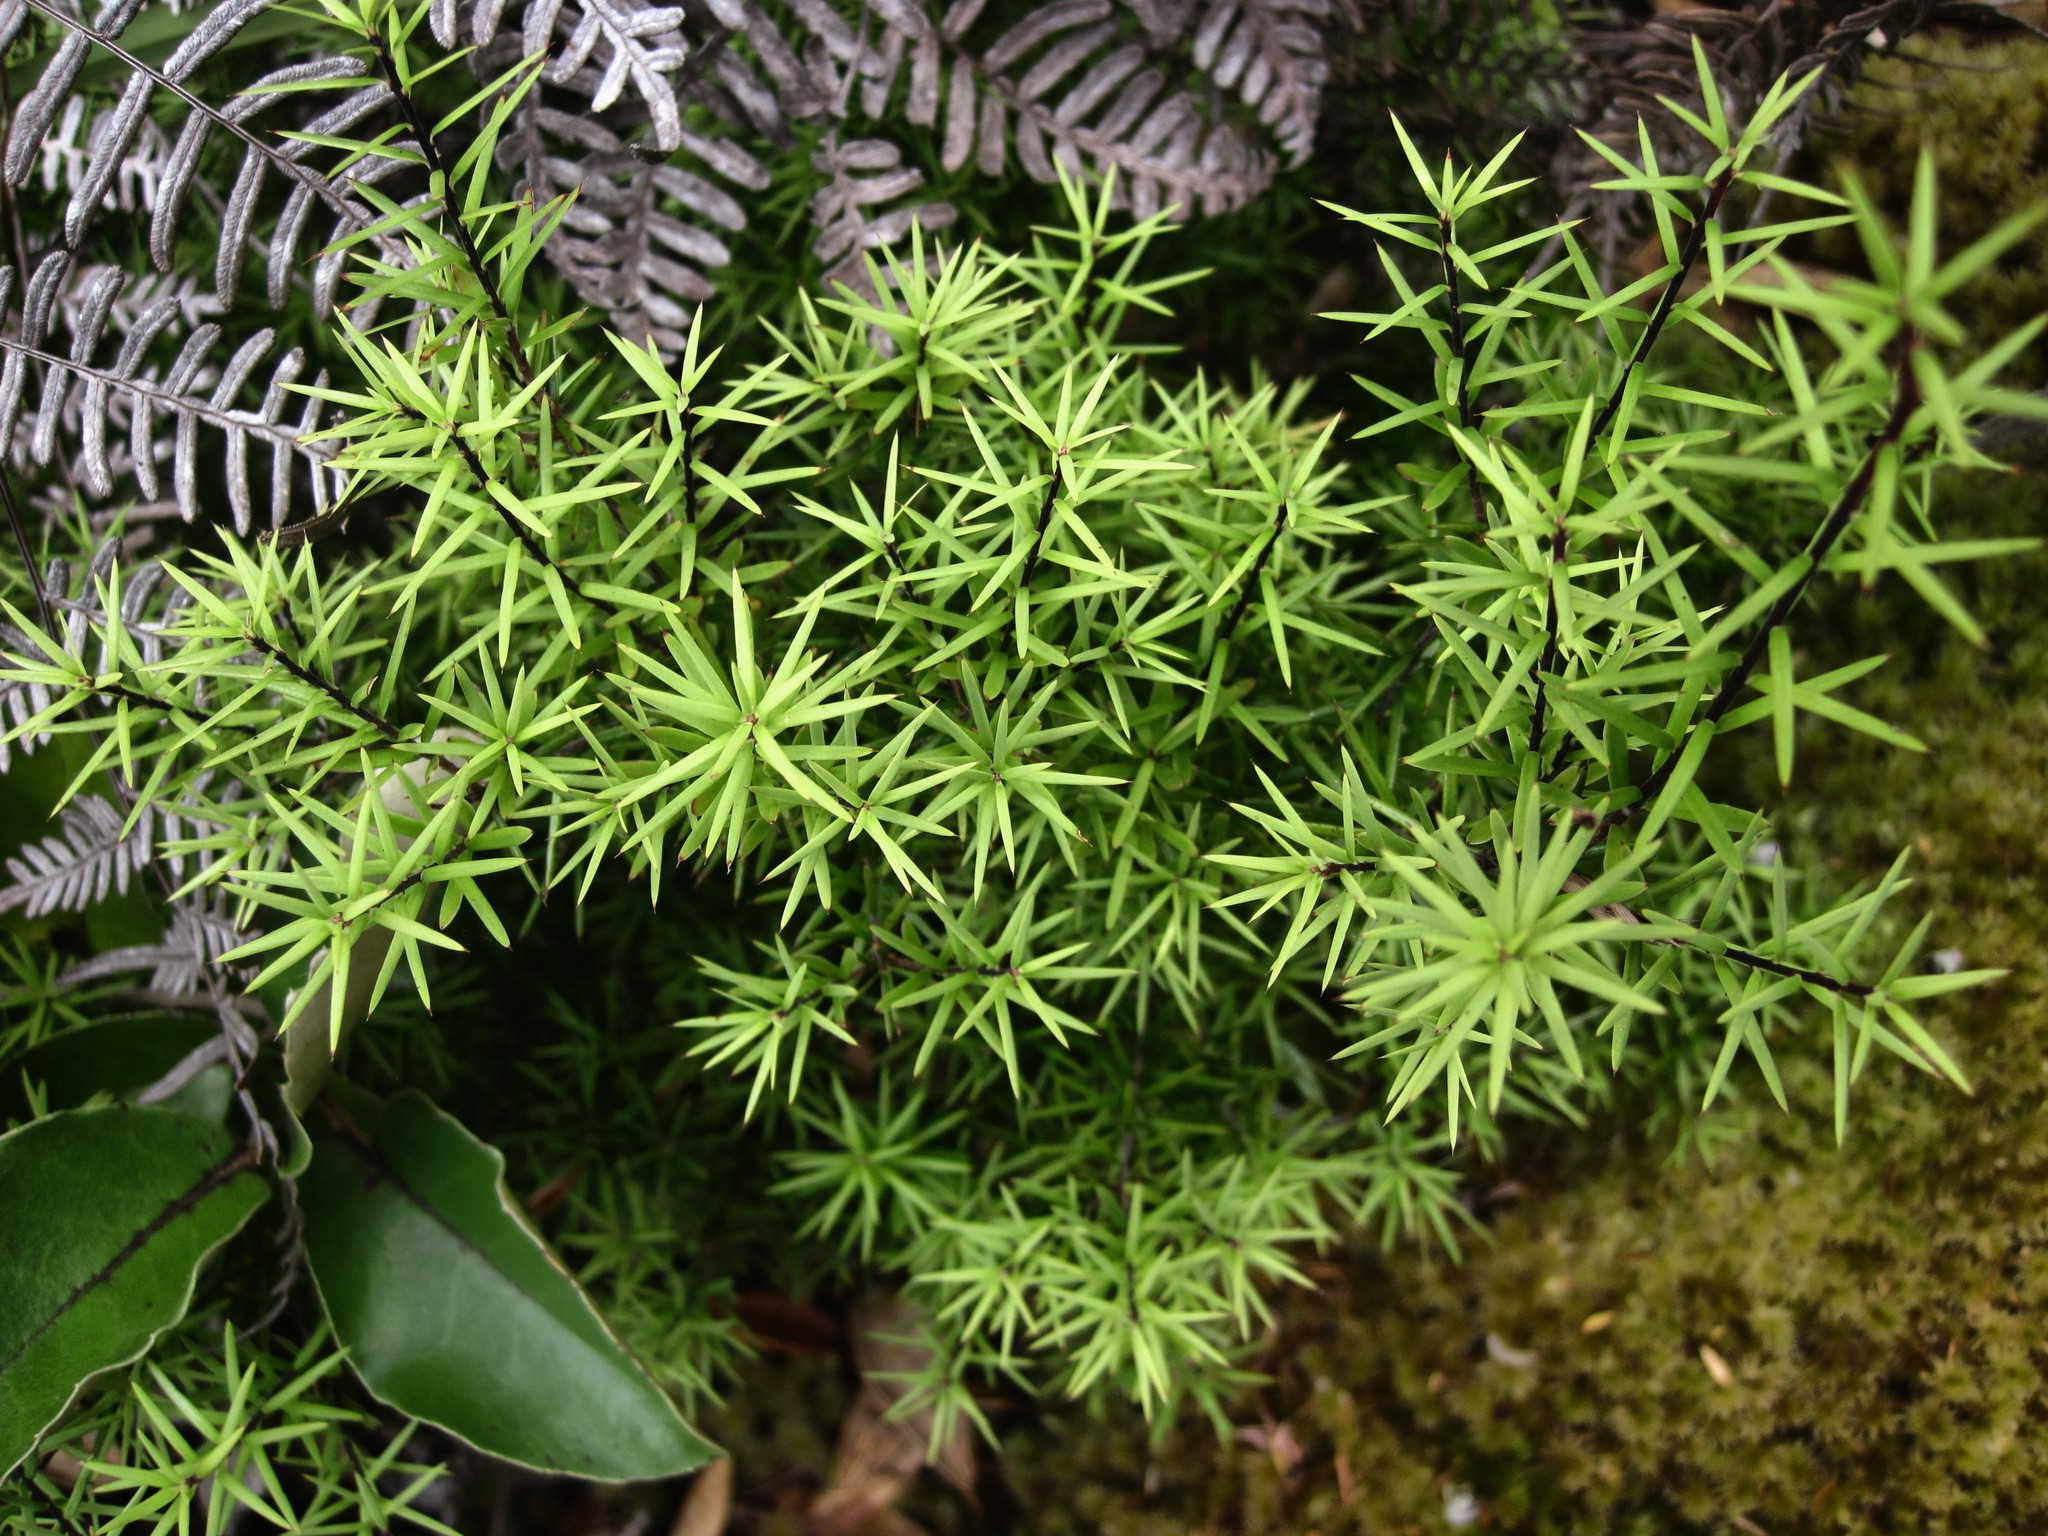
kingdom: Plantae
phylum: Tracheophyta
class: Magnoliopsida
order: Ericales
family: Ericaceae
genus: Leptecophylla
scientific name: Leptecophylla juniperina
